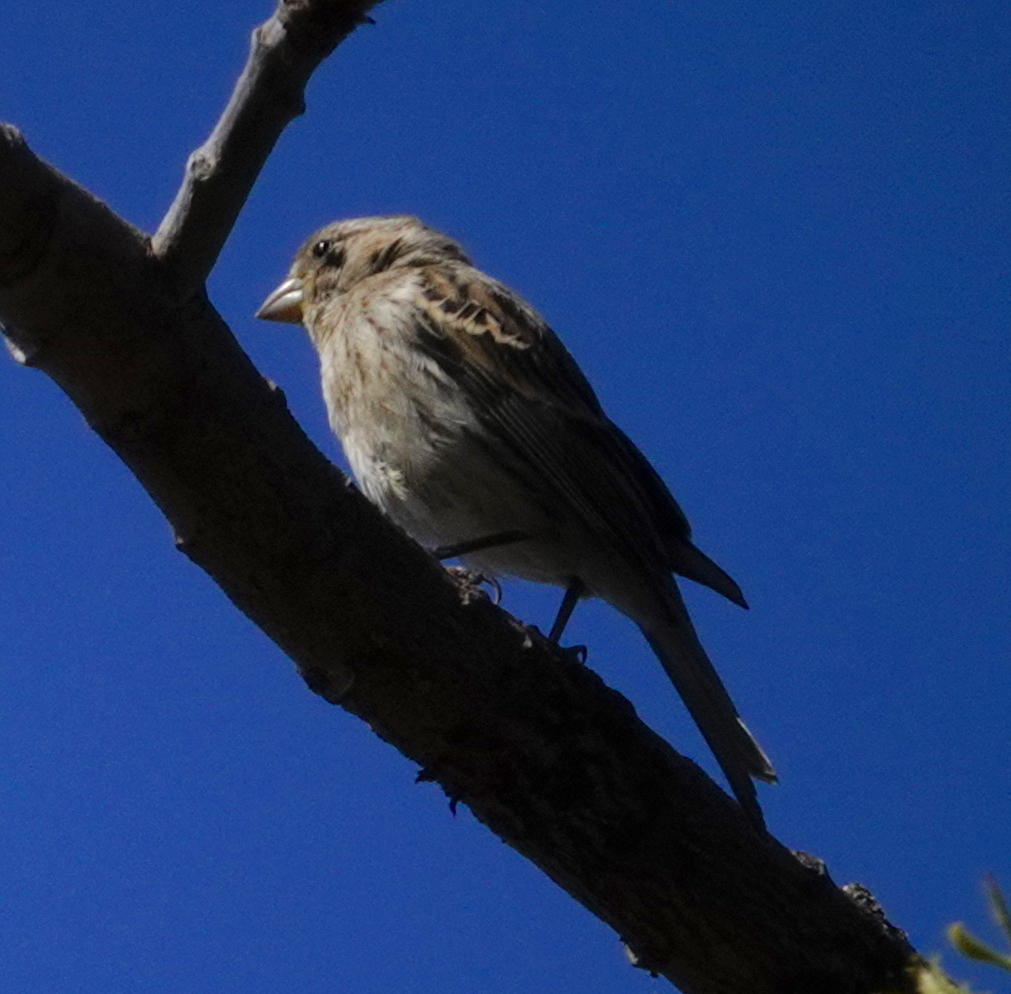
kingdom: Animalia
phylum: Chordata
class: Aves
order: Passeriformes
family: Fringillidae
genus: Serinus
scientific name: Serinus canaria
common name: Atlantic canary
